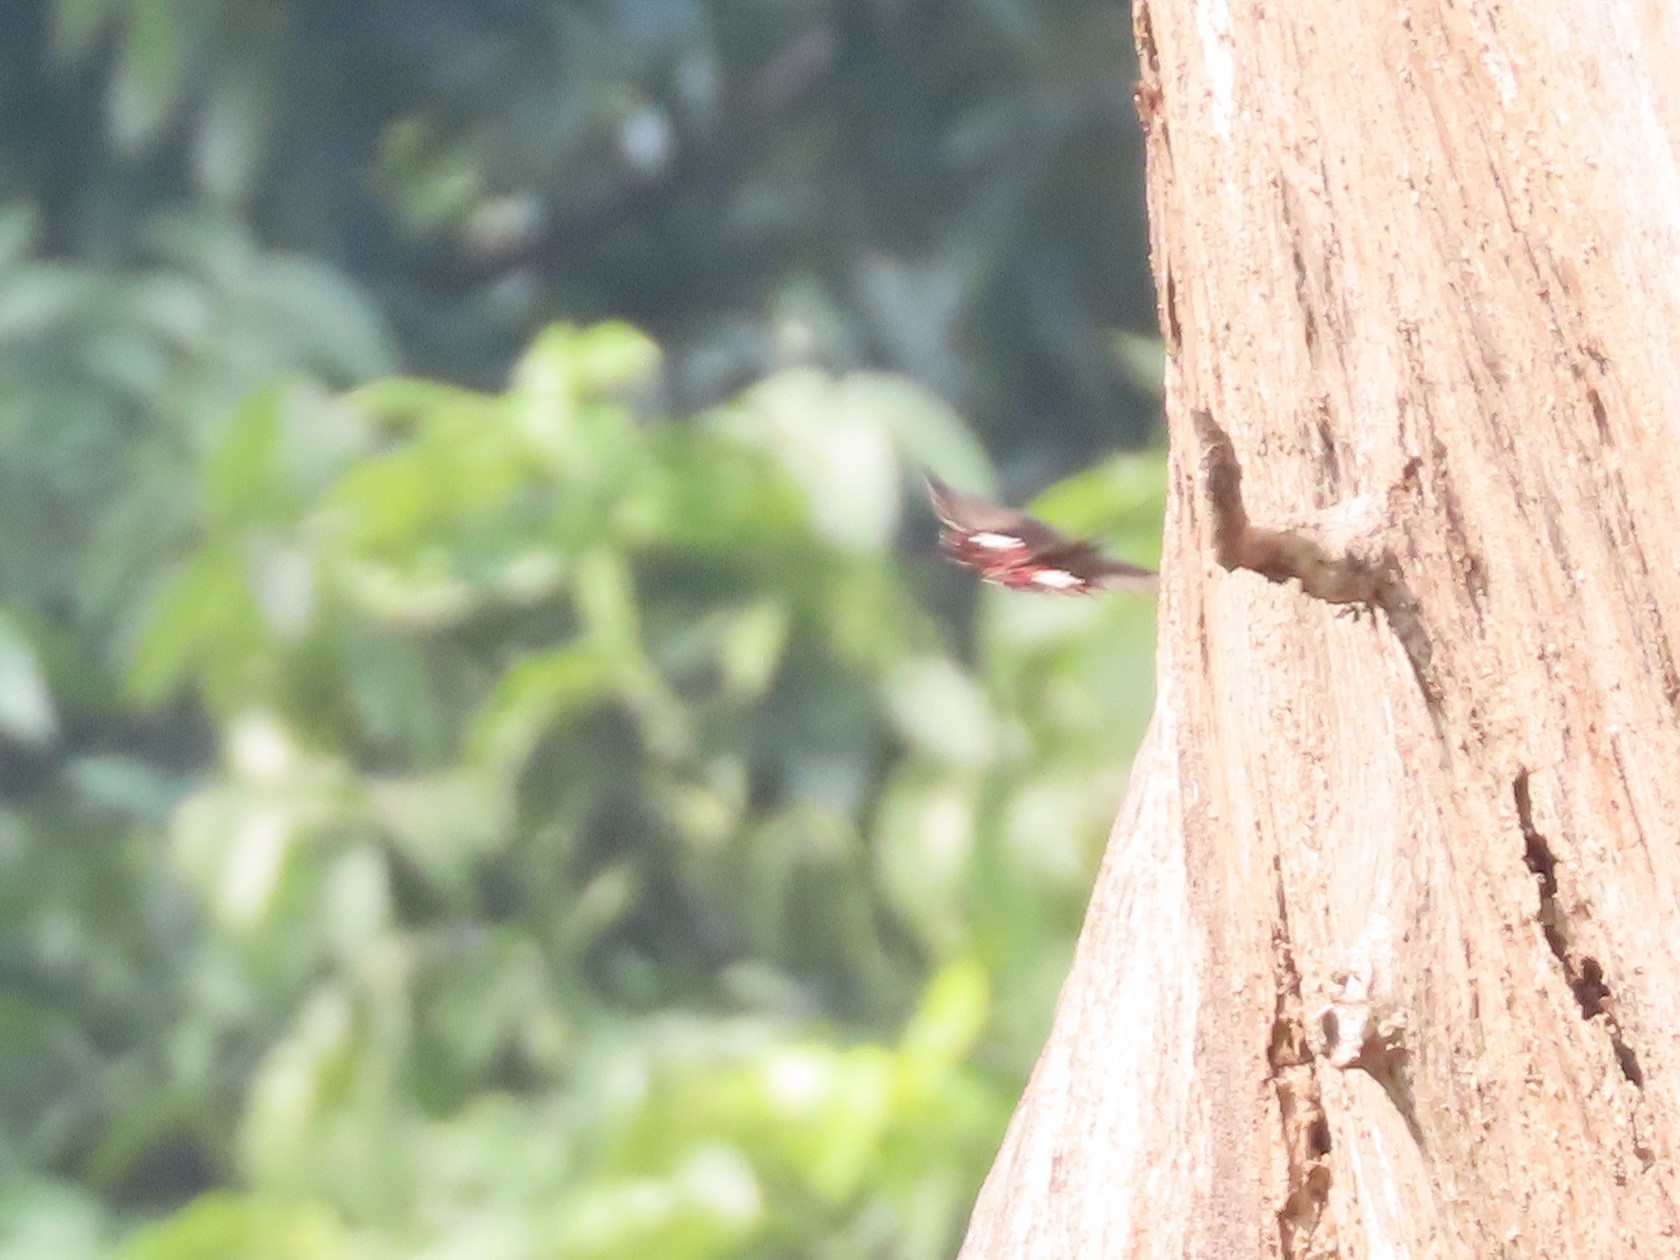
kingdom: Animalia
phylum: Arthropoda
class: Insecta
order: Lepidoptera
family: Papilionidae
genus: Papilio
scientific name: Papilio polytes
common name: Common mormon
